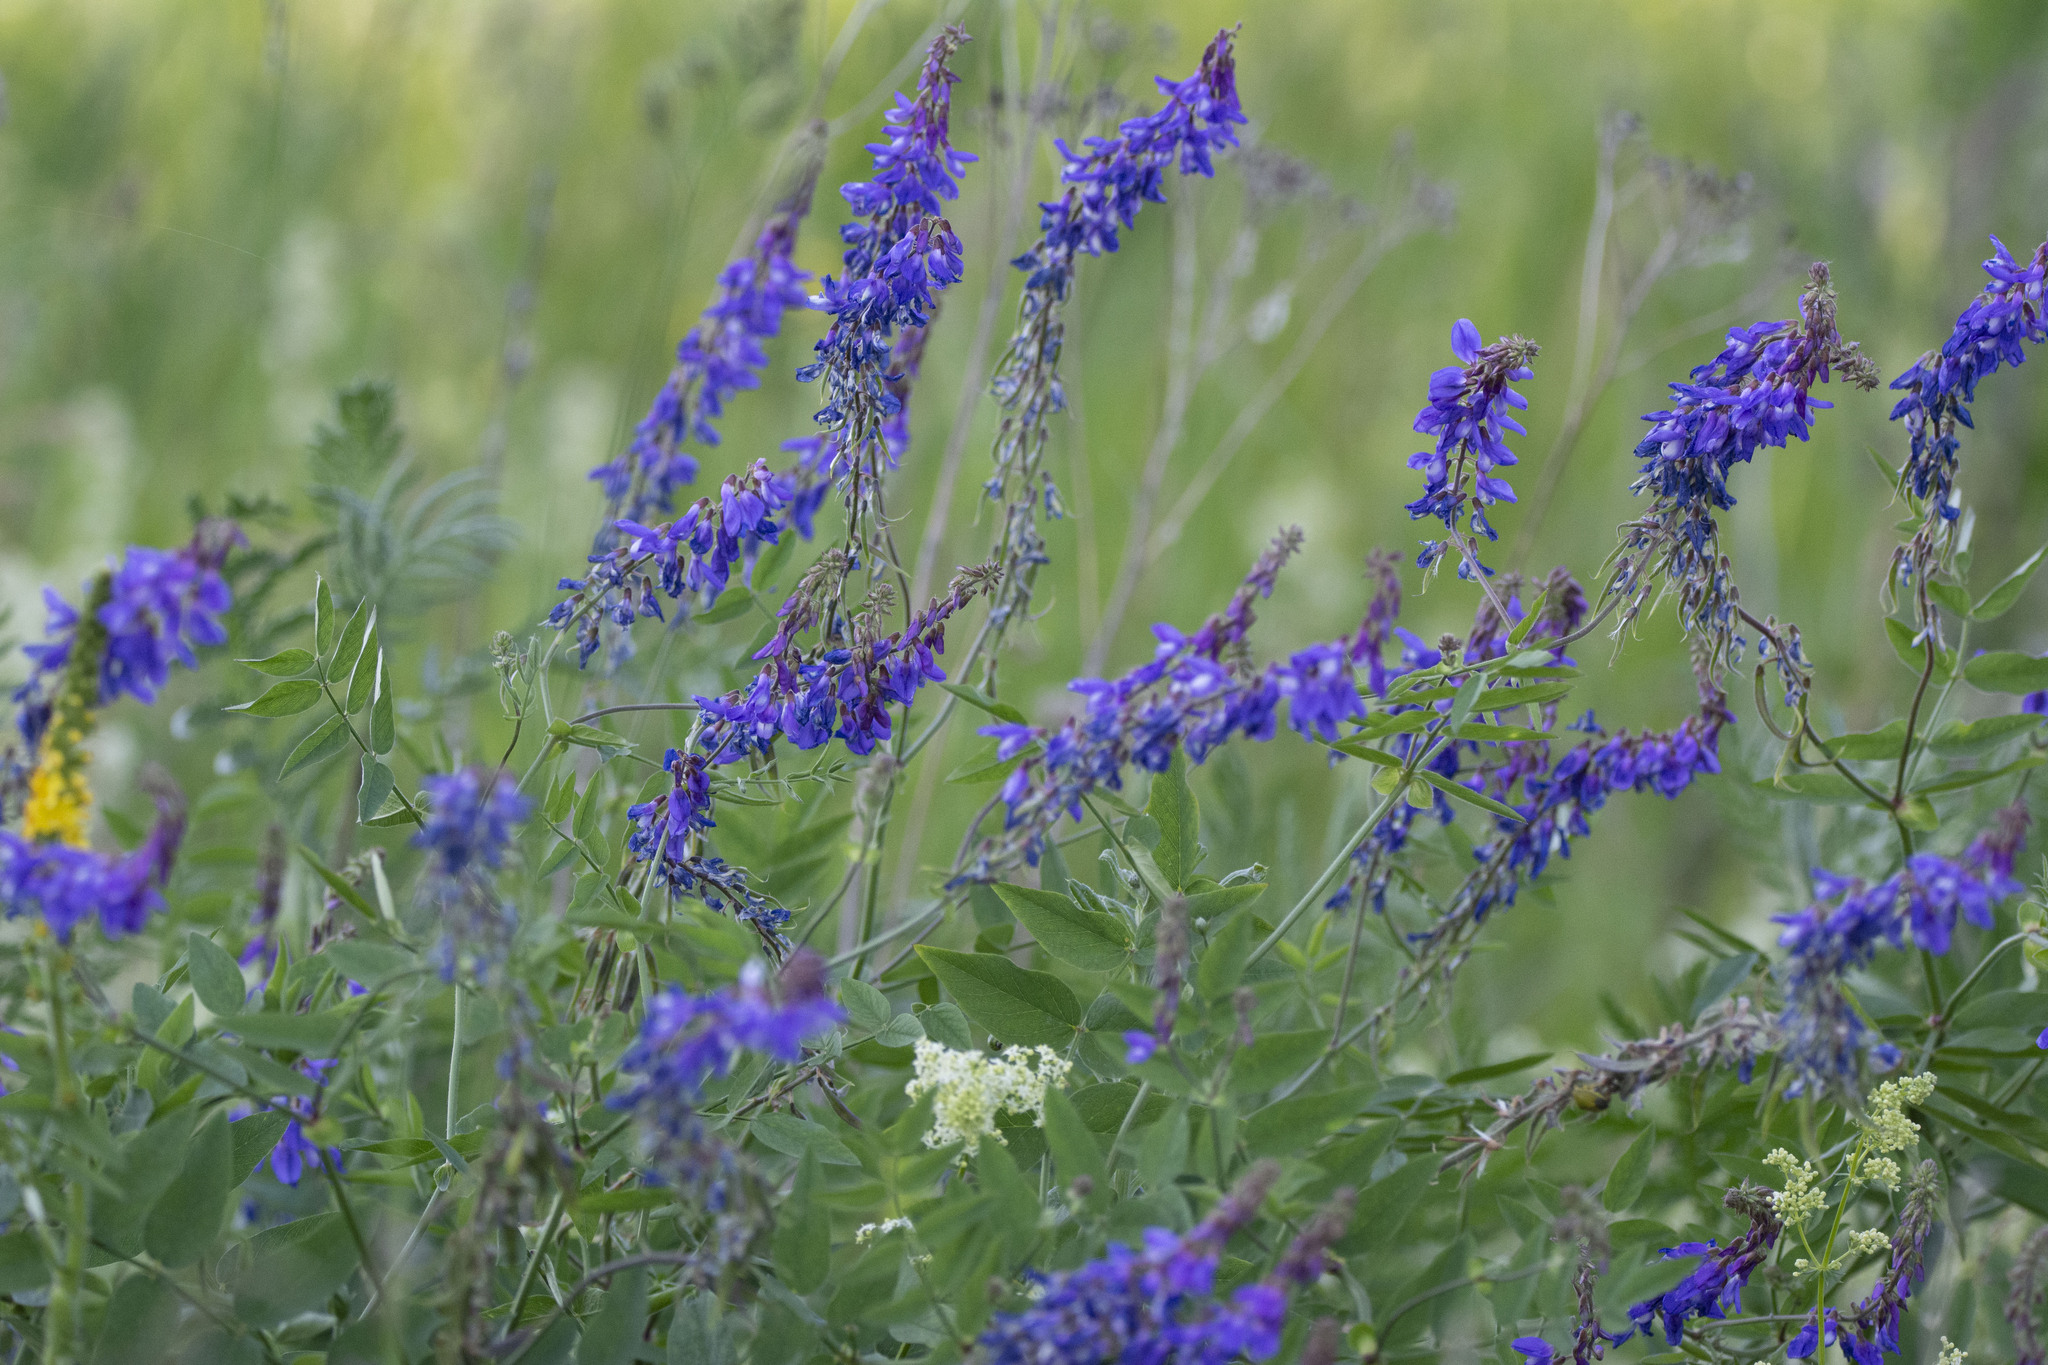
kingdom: Plantae
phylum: Tracheophyta
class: Magnoliopsida
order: Fabales
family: Fabaceae
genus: Galega
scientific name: Galega orientalis
